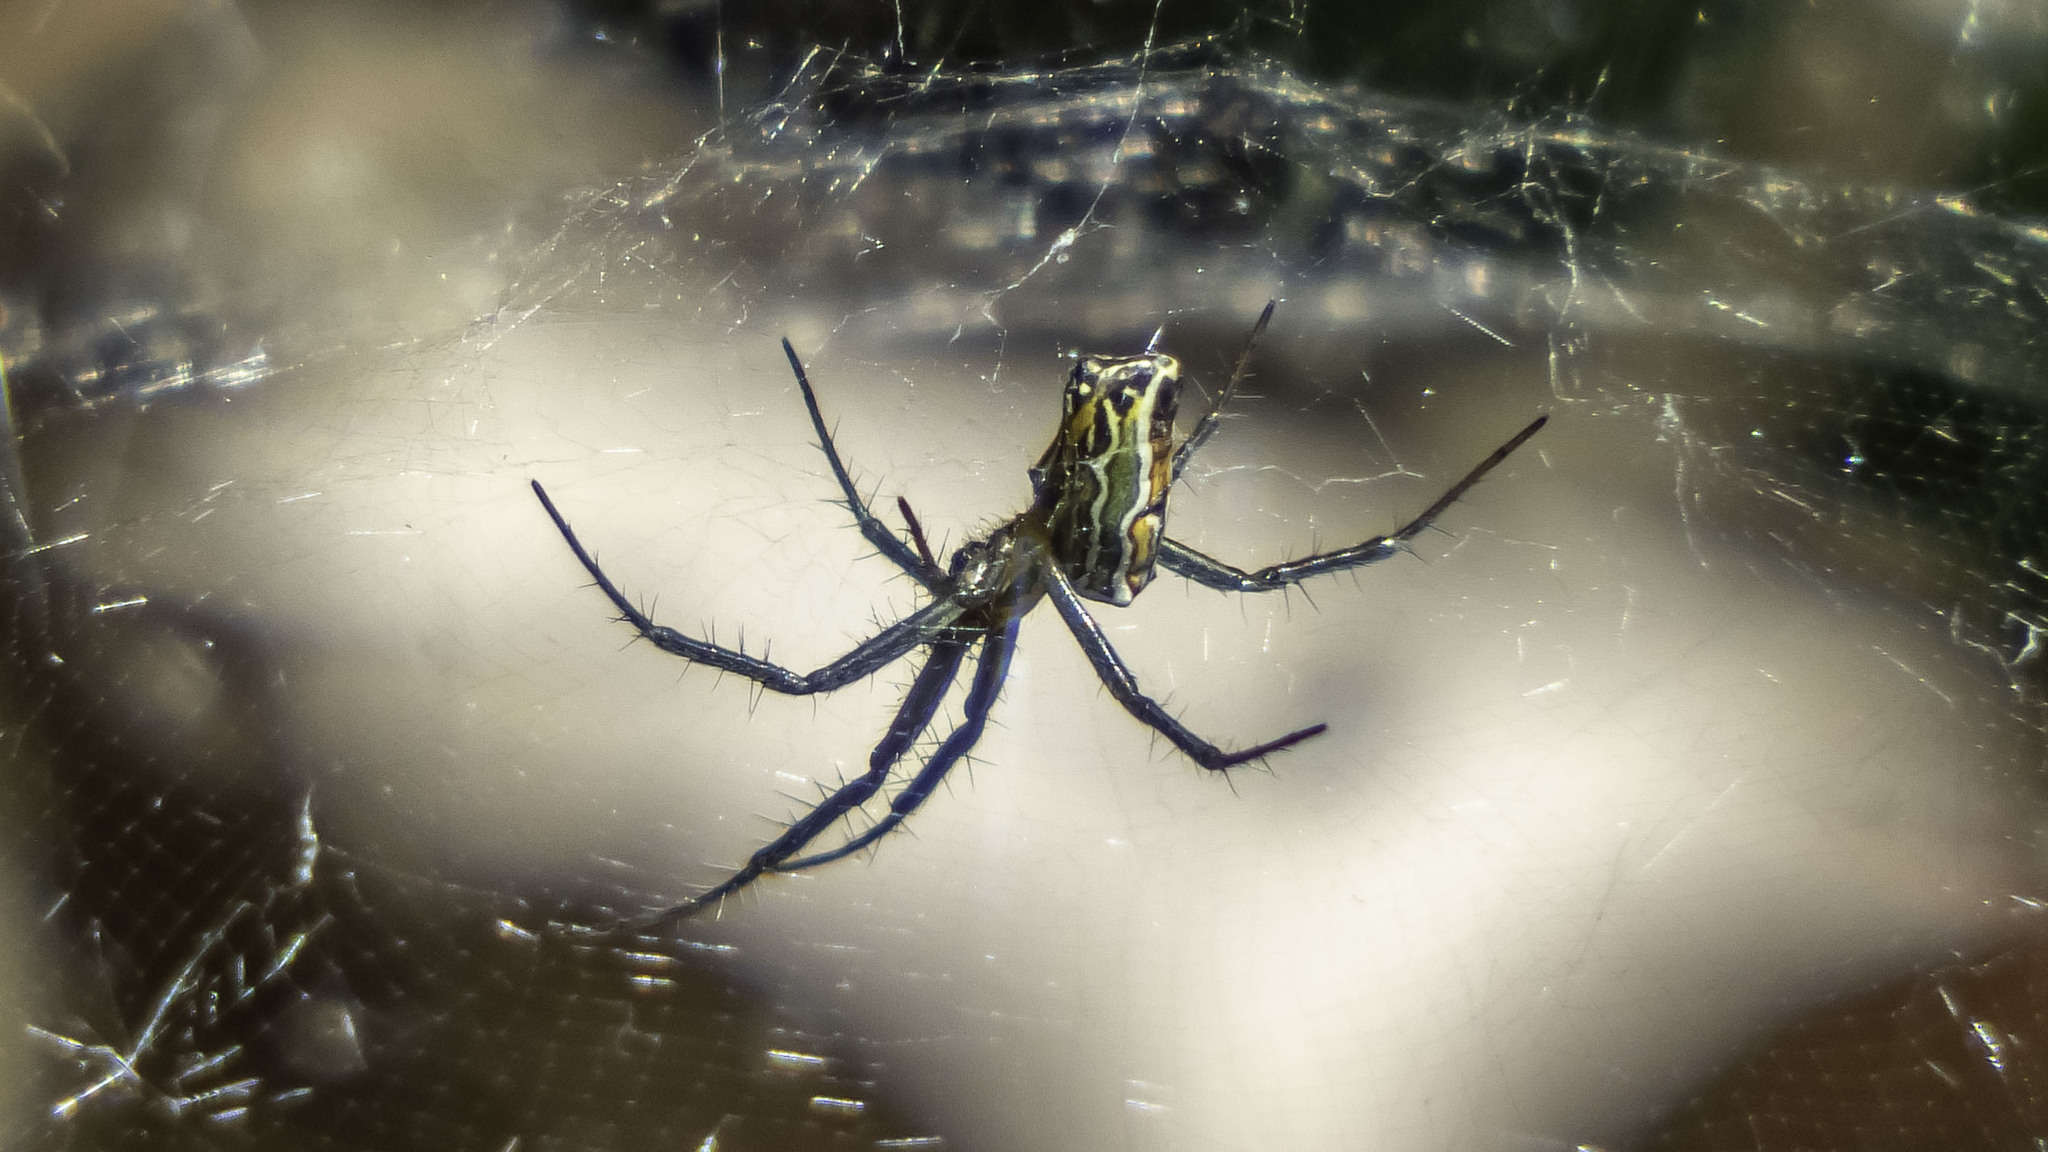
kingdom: Animalia
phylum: Arthropoda
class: Arachnida
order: Araneae
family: Araneidae
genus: Mecynogea
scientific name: Mecynogea lemniscata
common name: Orb weavers
